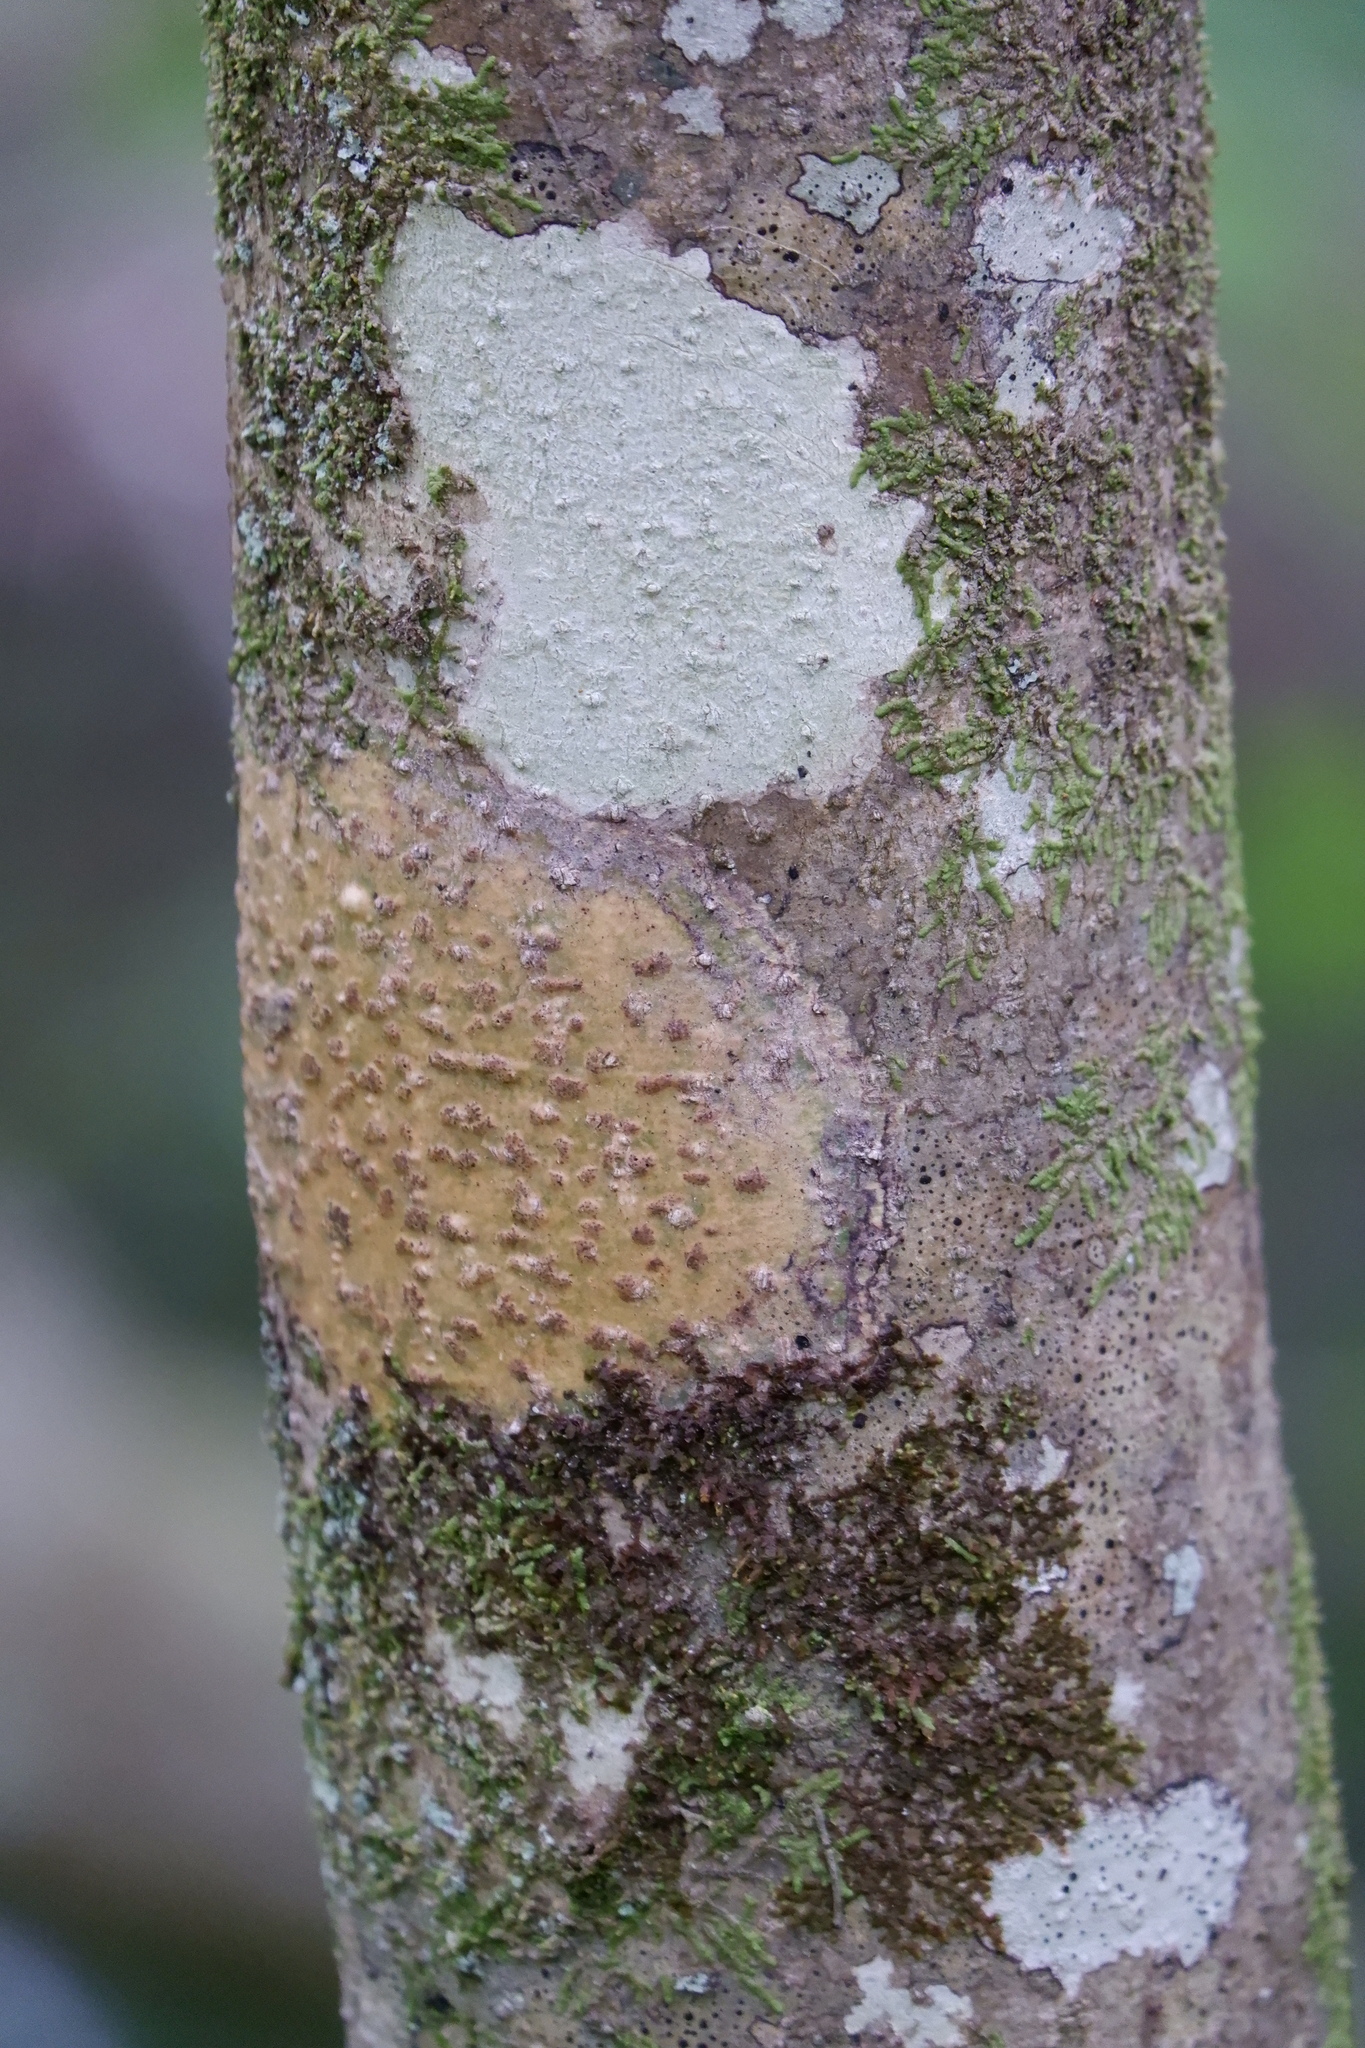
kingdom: Fungi
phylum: Ascomycota
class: Dothideomycetes
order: Trypetheliales
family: Trypetheliaceae
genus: Viridothelium
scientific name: Viridothelium virens
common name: Speckled blister lichen
